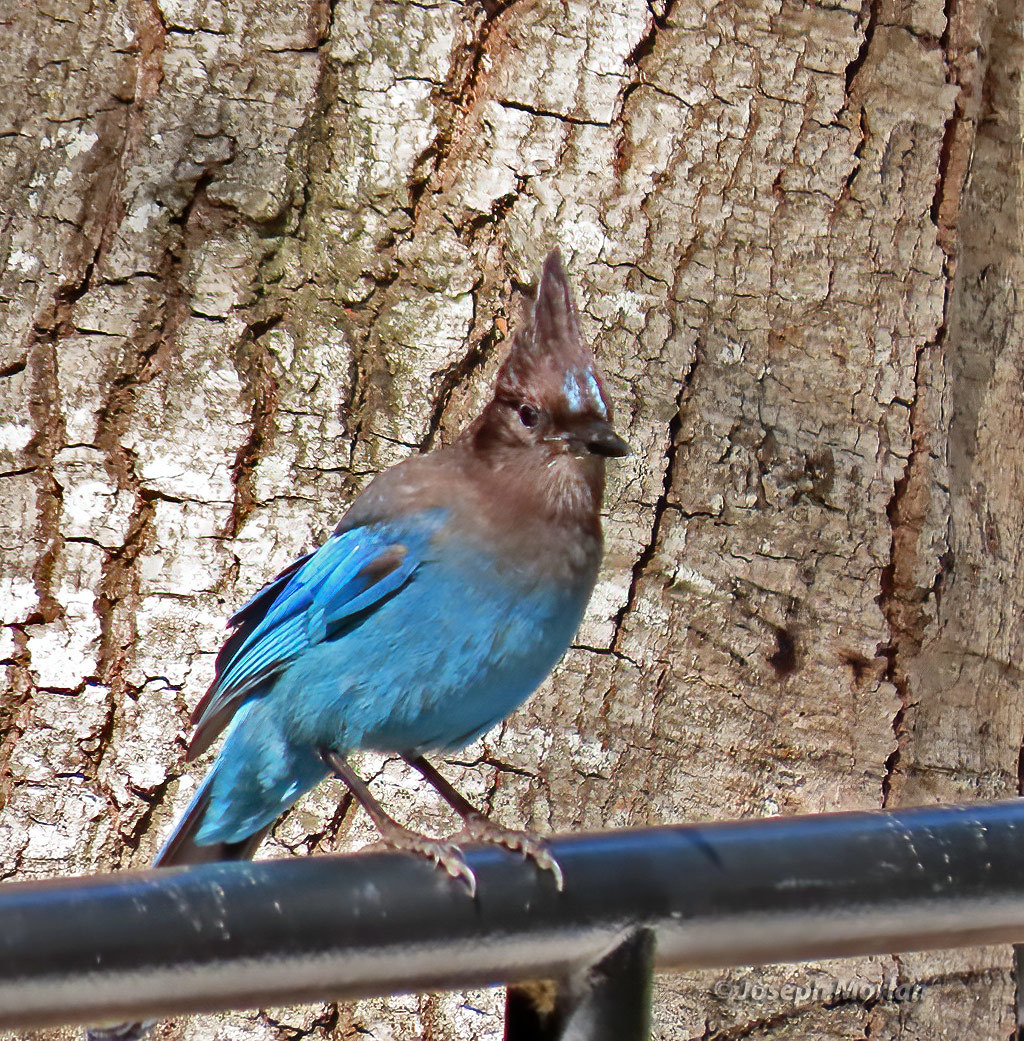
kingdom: Animalia
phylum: Chordata
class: Aves
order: Passeriformes
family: Corvidae
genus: Cyanocitta
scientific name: Cyanocitta stelleri
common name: Steller's jay
